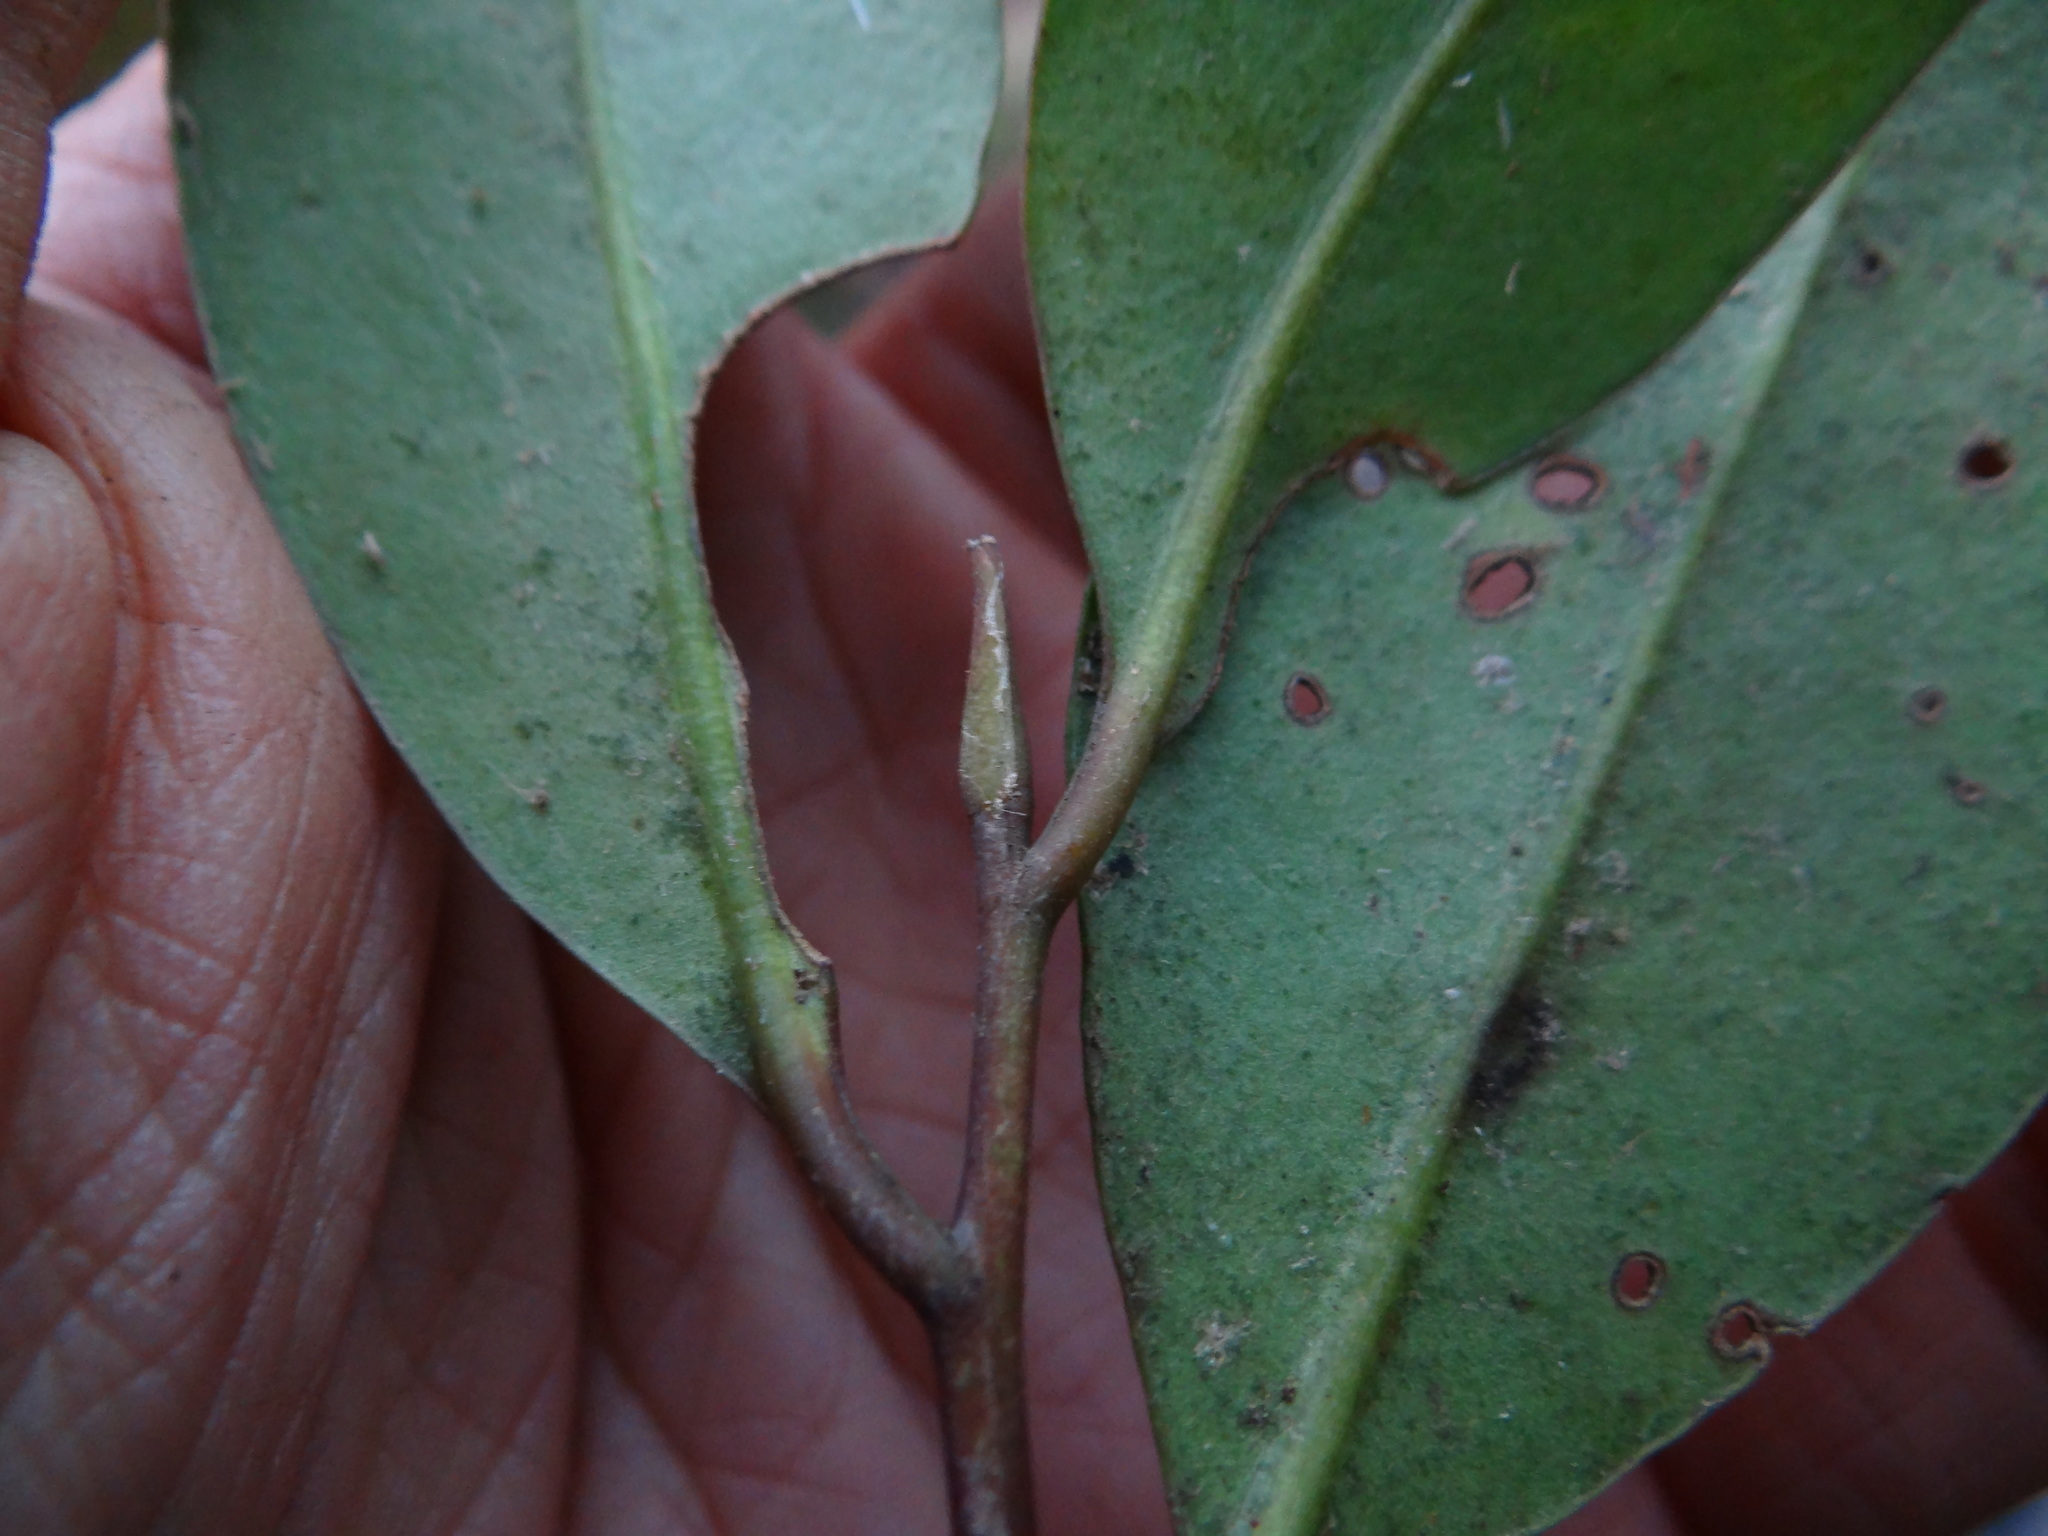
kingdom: Plantae
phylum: Tracheophyta
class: Magnoliopsida
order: Ericales
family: Pentaphylacaceae
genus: Cleyera
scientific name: Cleyera japonica
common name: Sakaki
